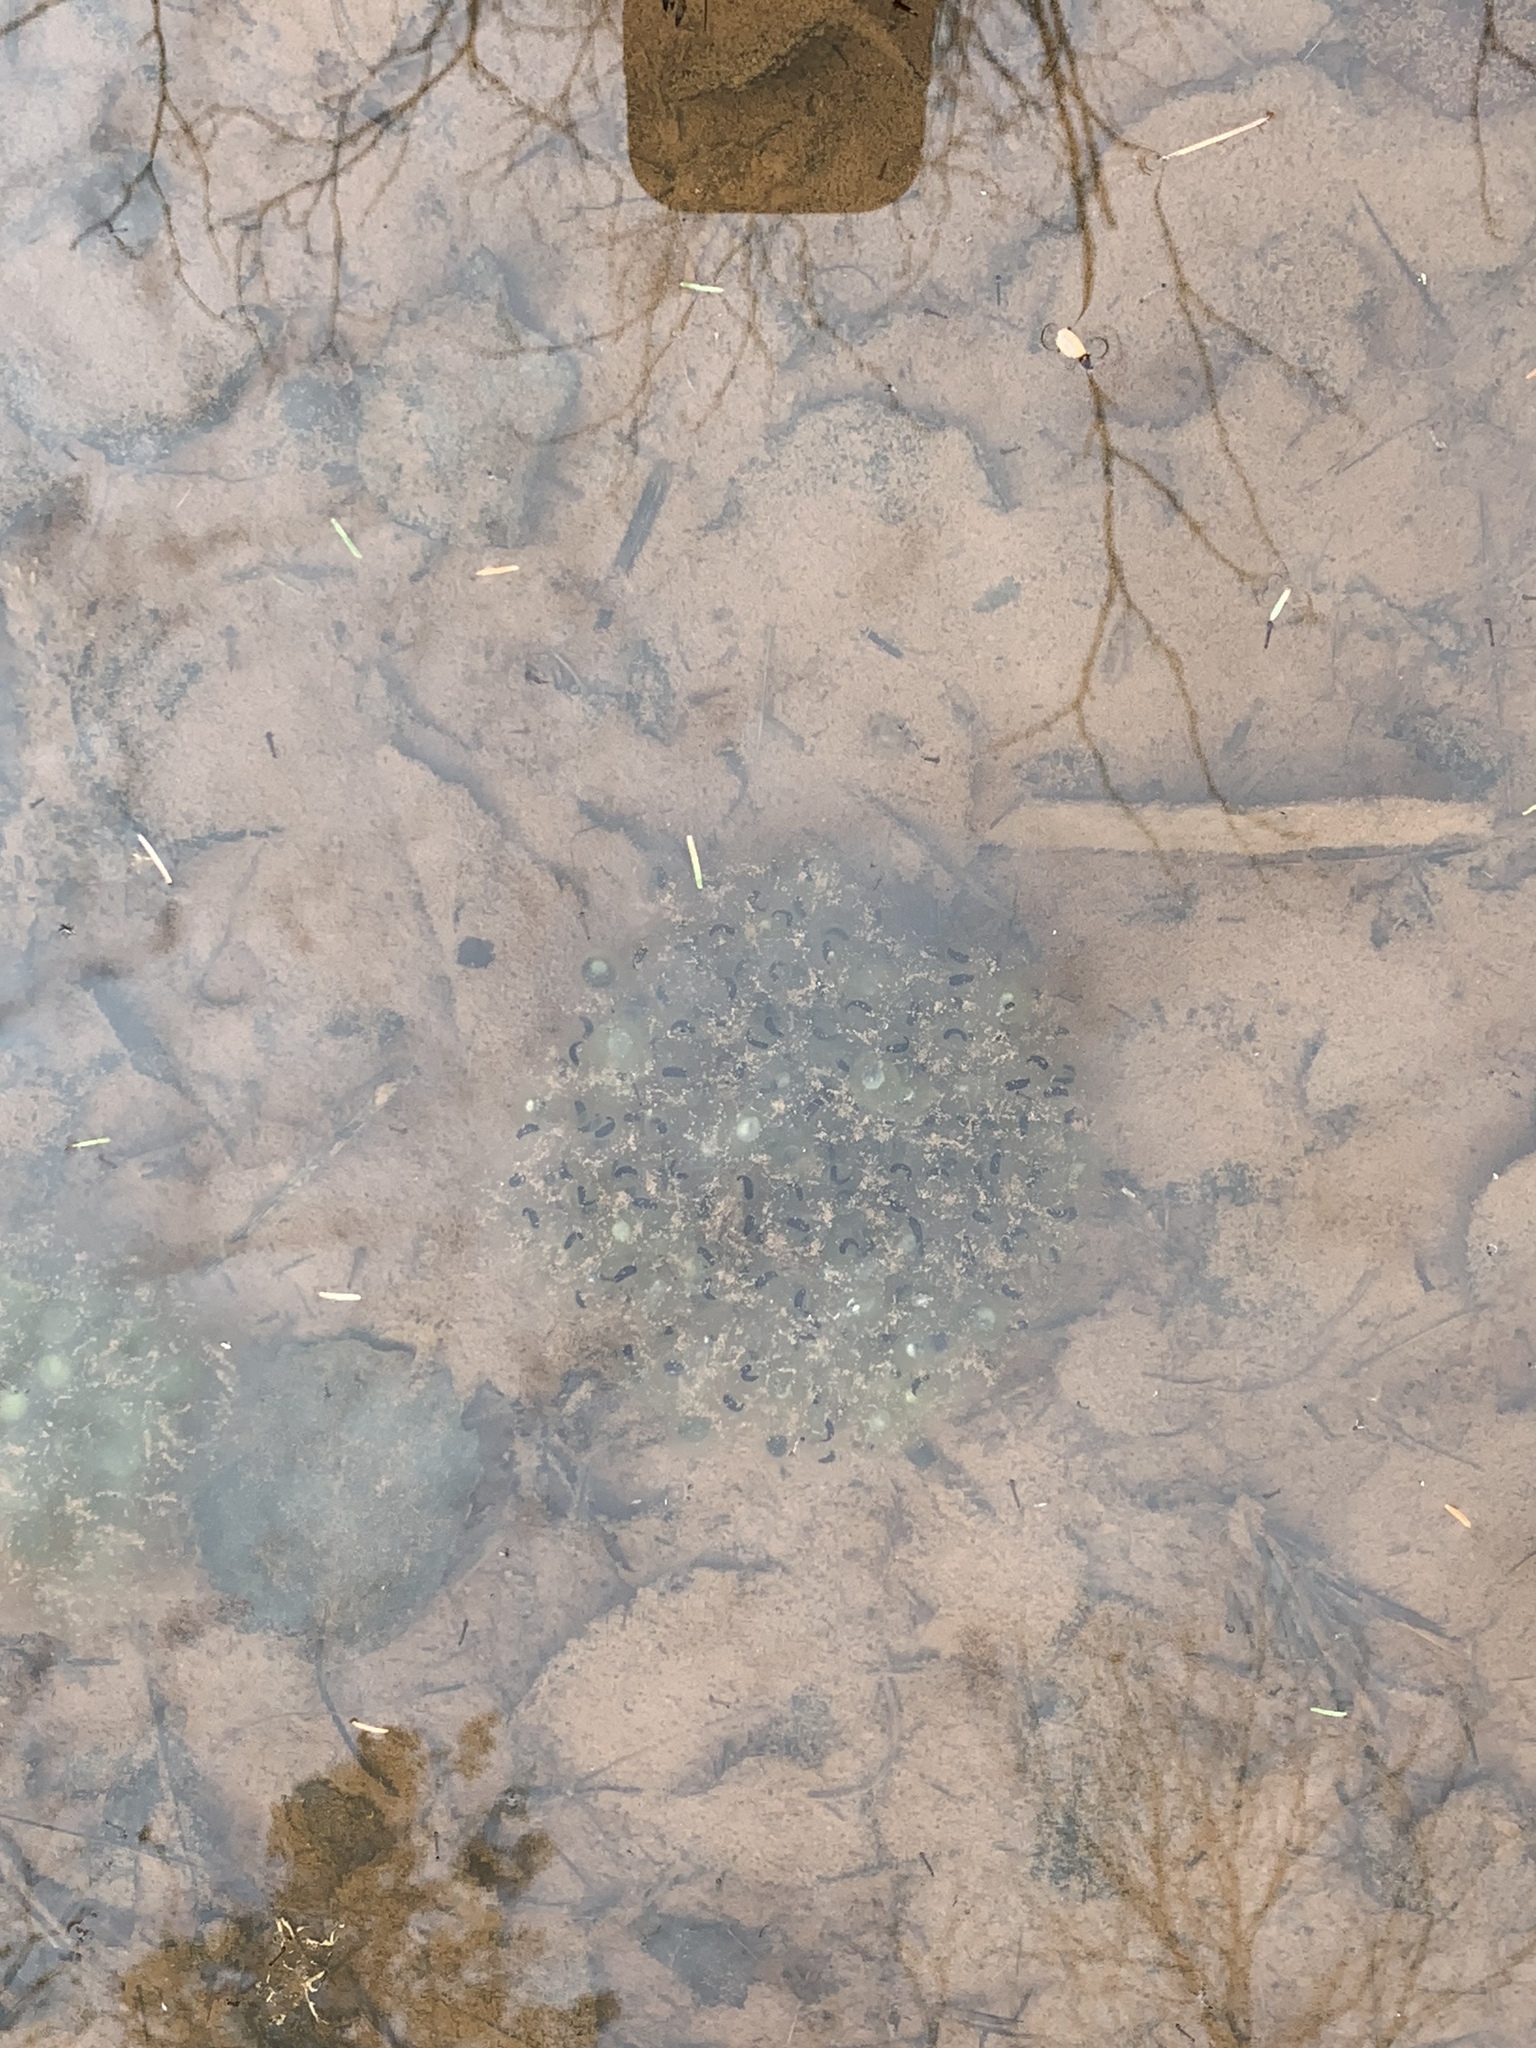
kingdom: Animalia
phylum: Chordata
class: Amphibia
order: Anura
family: Ranidae
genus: Lithobates
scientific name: Lithobates sylvaticus
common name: Wood frog
